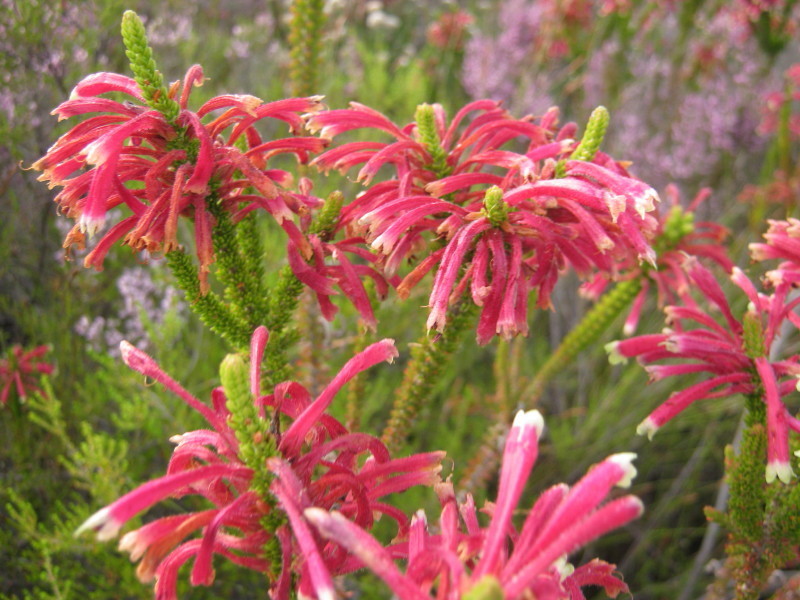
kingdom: Plantae
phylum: Tracheophyta
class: Magnoliopsida
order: Ericales
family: Ericaceae
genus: Erica
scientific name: Erica densifolia
